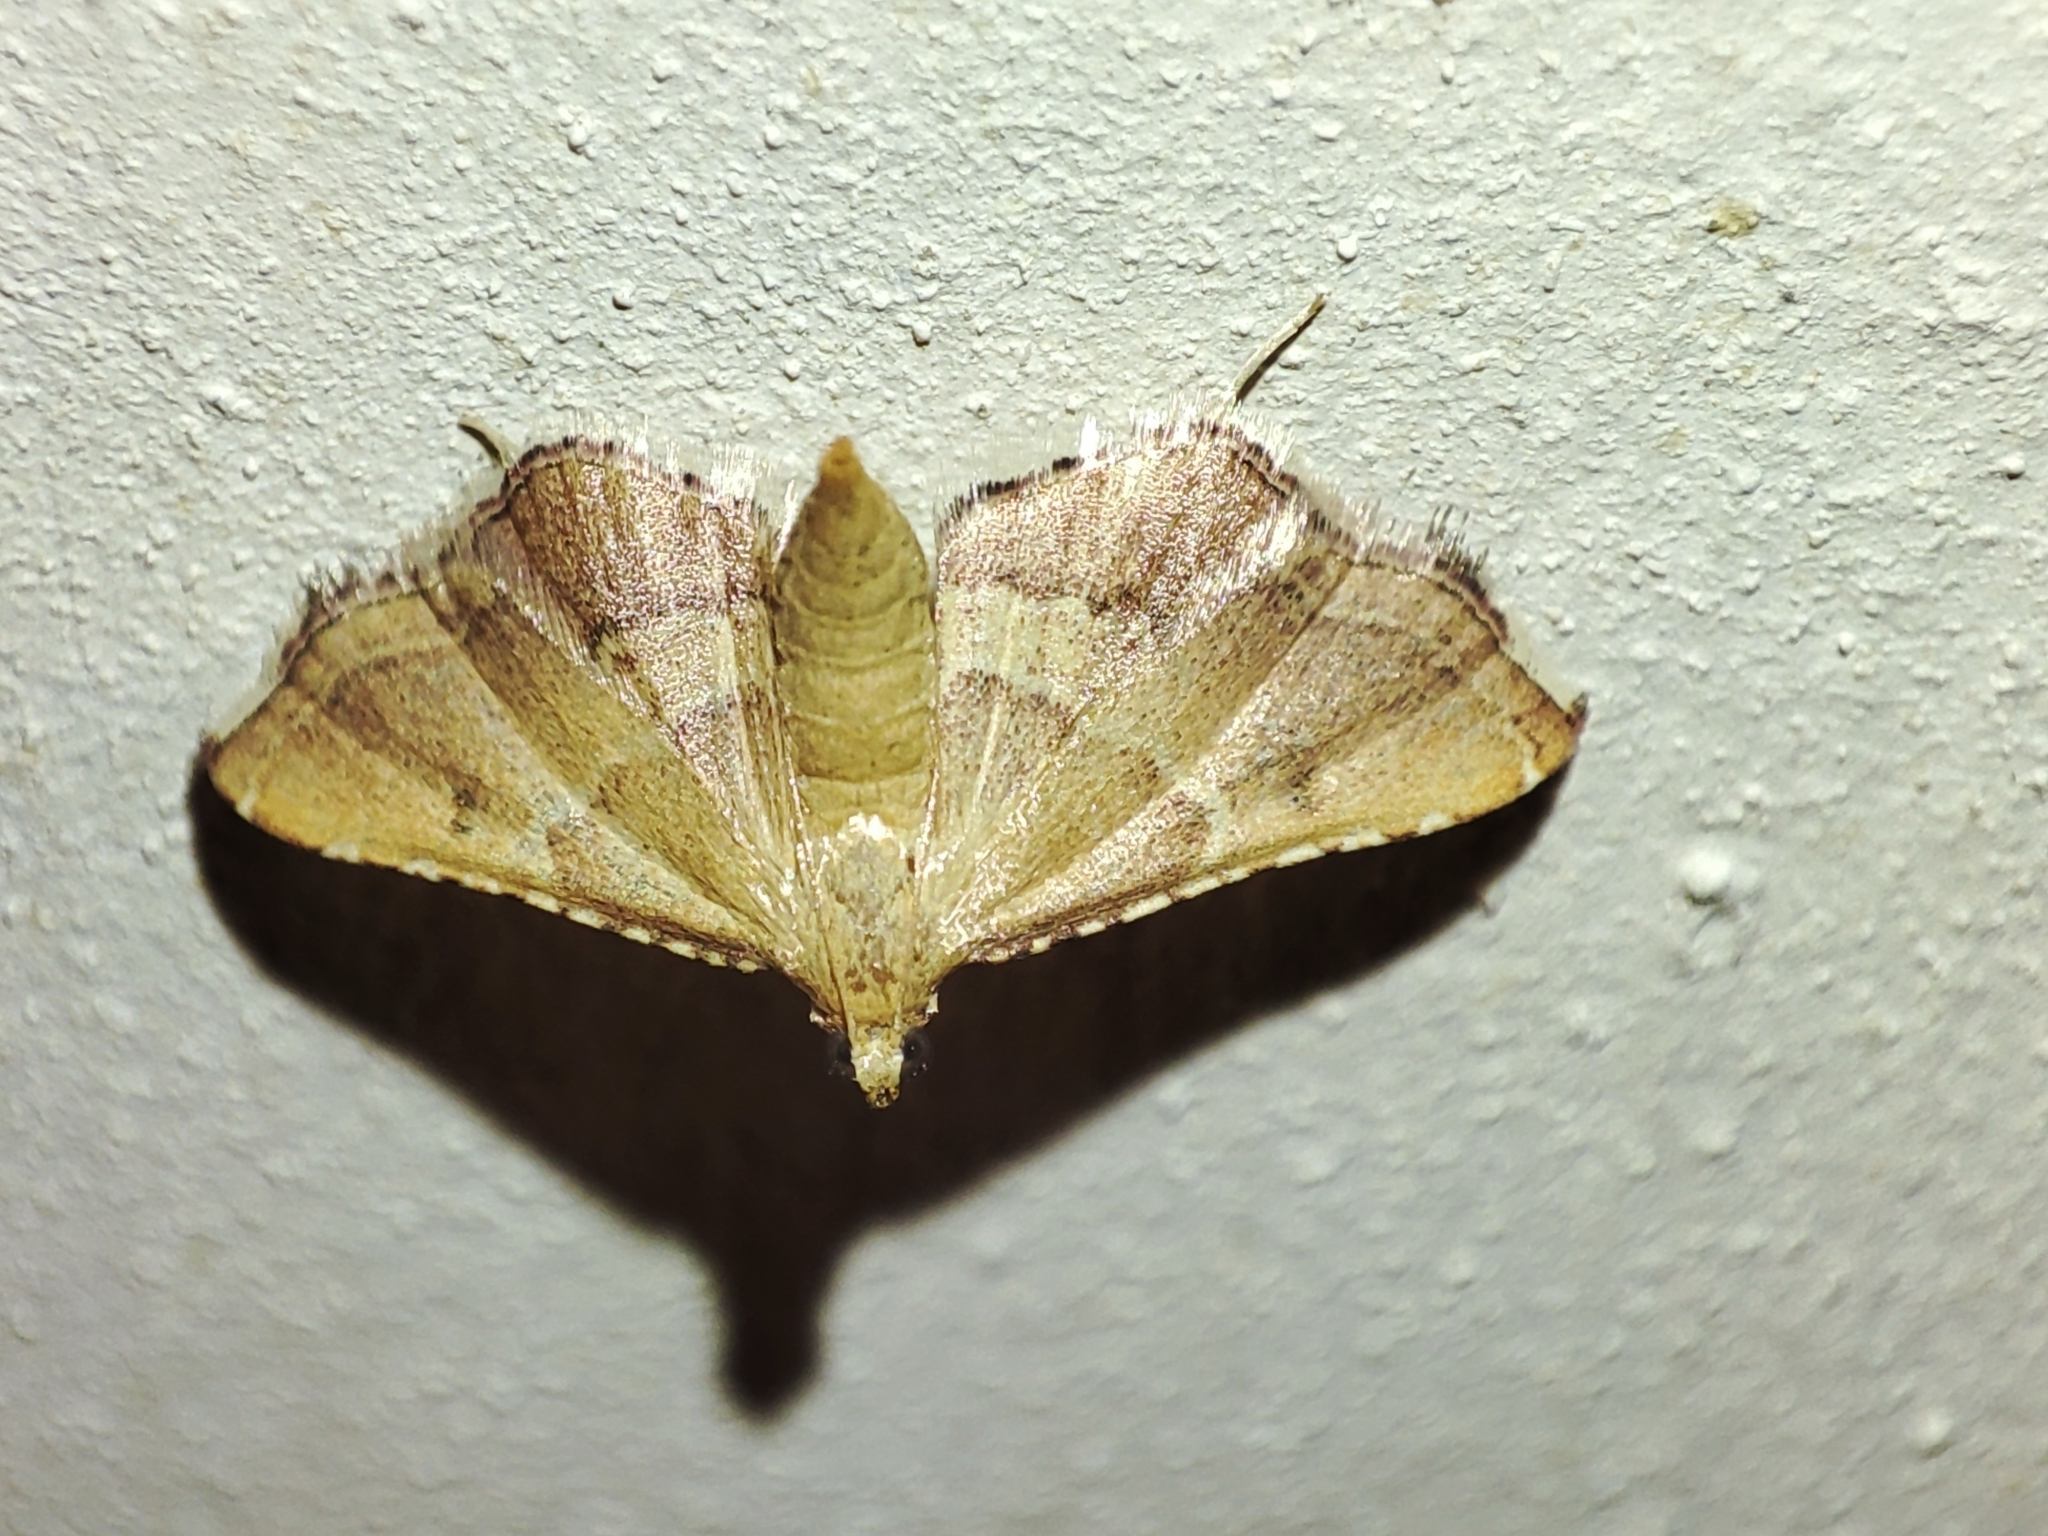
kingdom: Animalia
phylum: Arthropoda
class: Insecta
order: Lepidoptera
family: Pyralidae
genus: Endotricha
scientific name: Endotricha flammealis
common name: Rosy tabby
